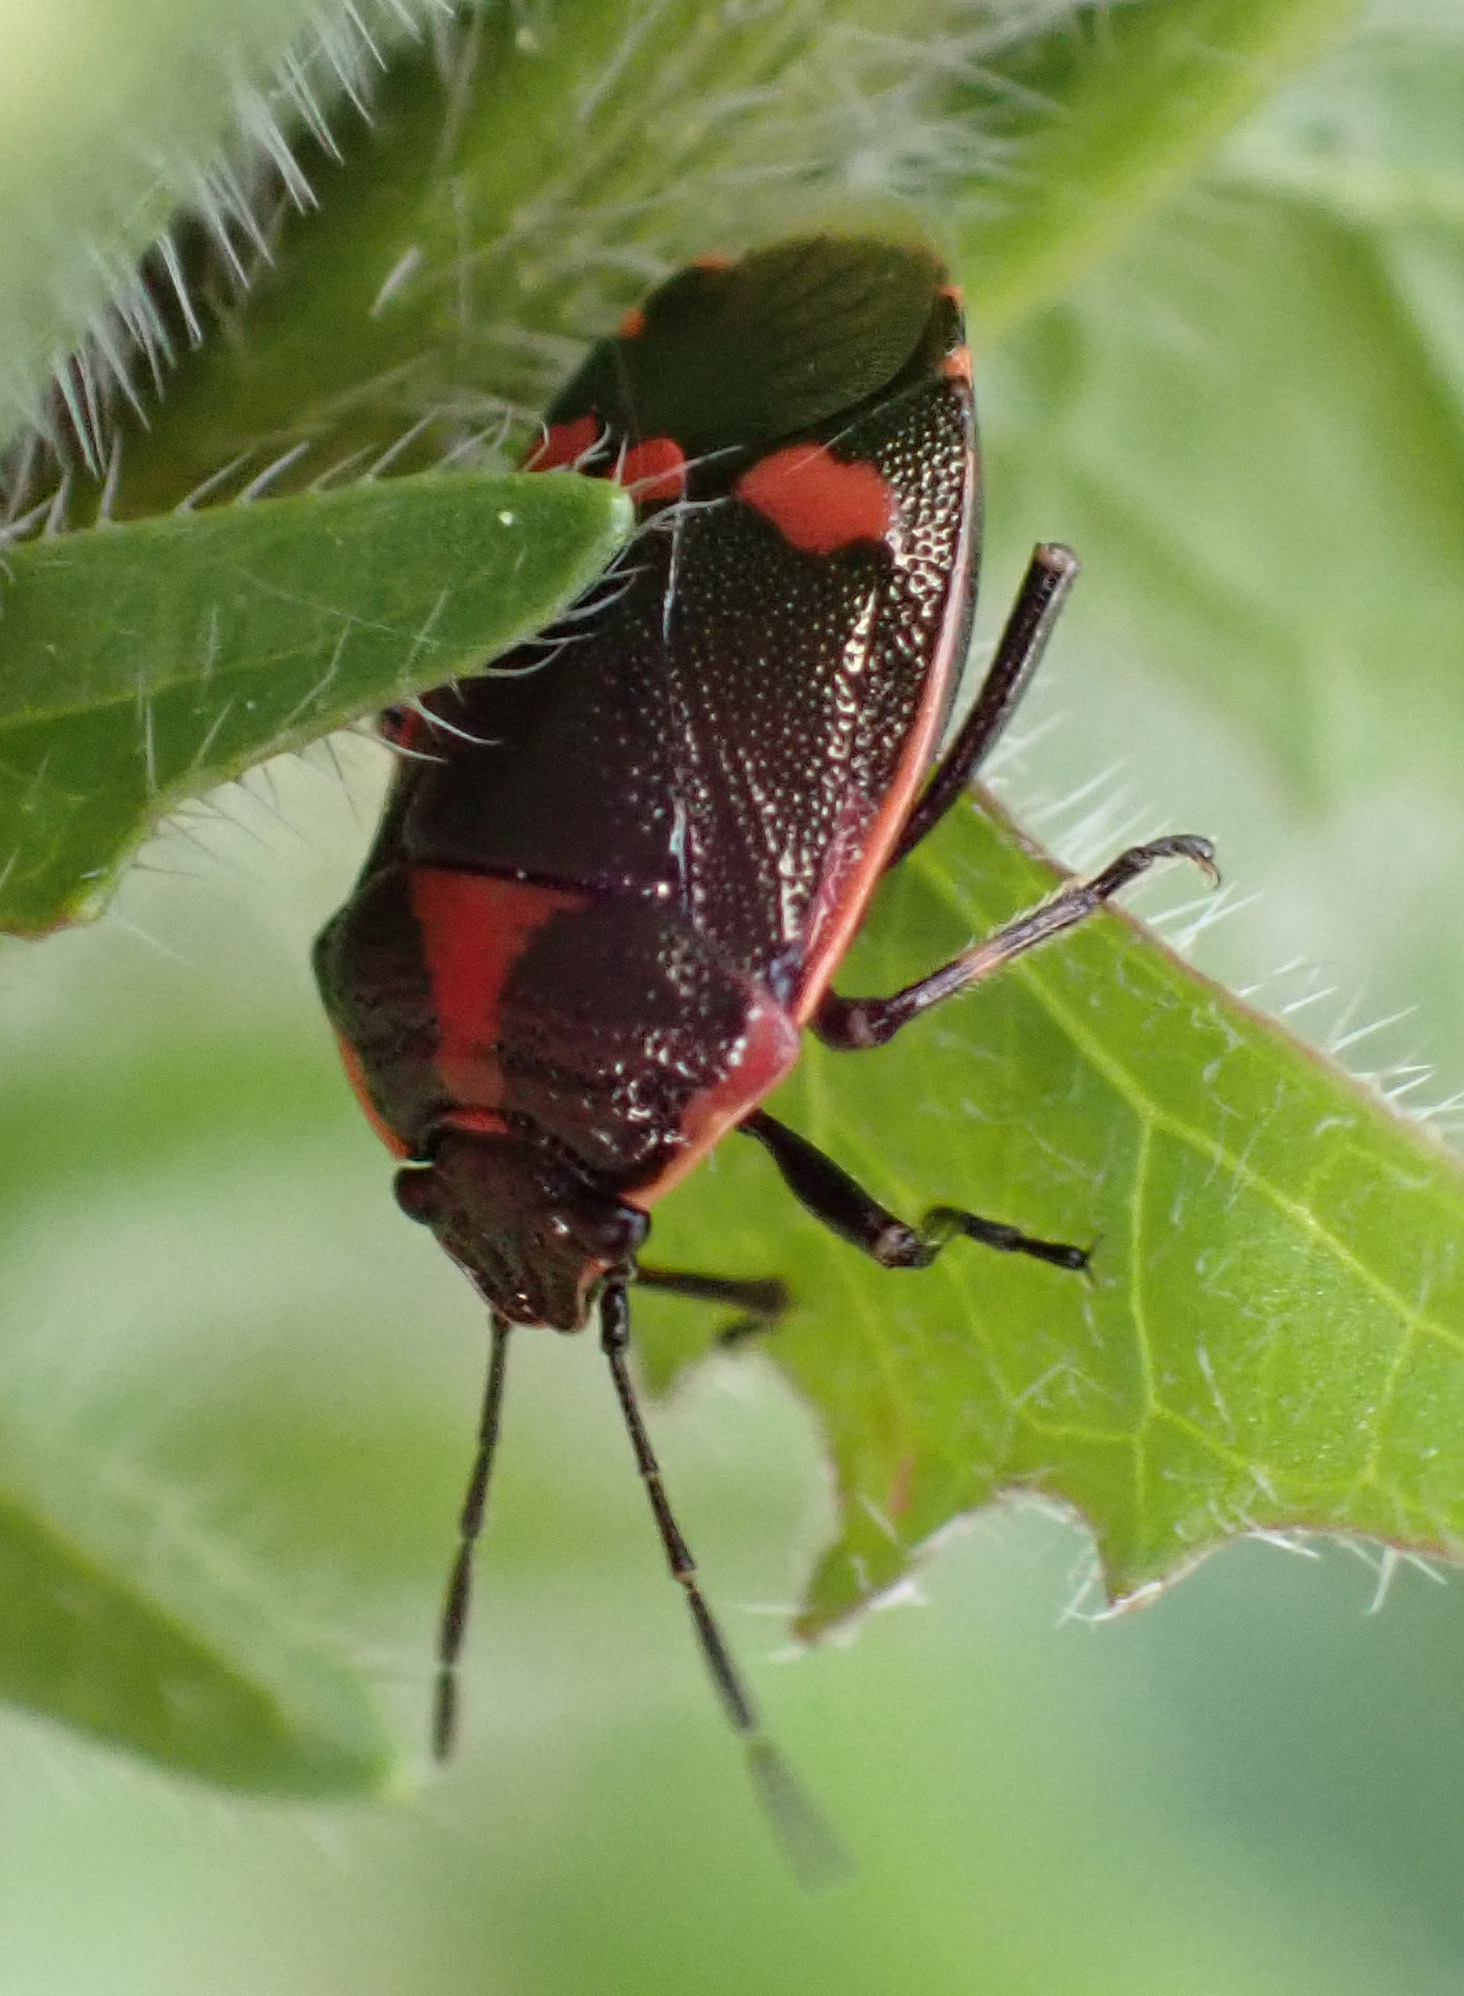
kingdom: Animalia
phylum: Arthropoda
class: Insecta
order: Hemiptera
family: Pentatomidae
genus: Eurydema
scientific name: Eurydema oleracea
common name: Cabbage bug
